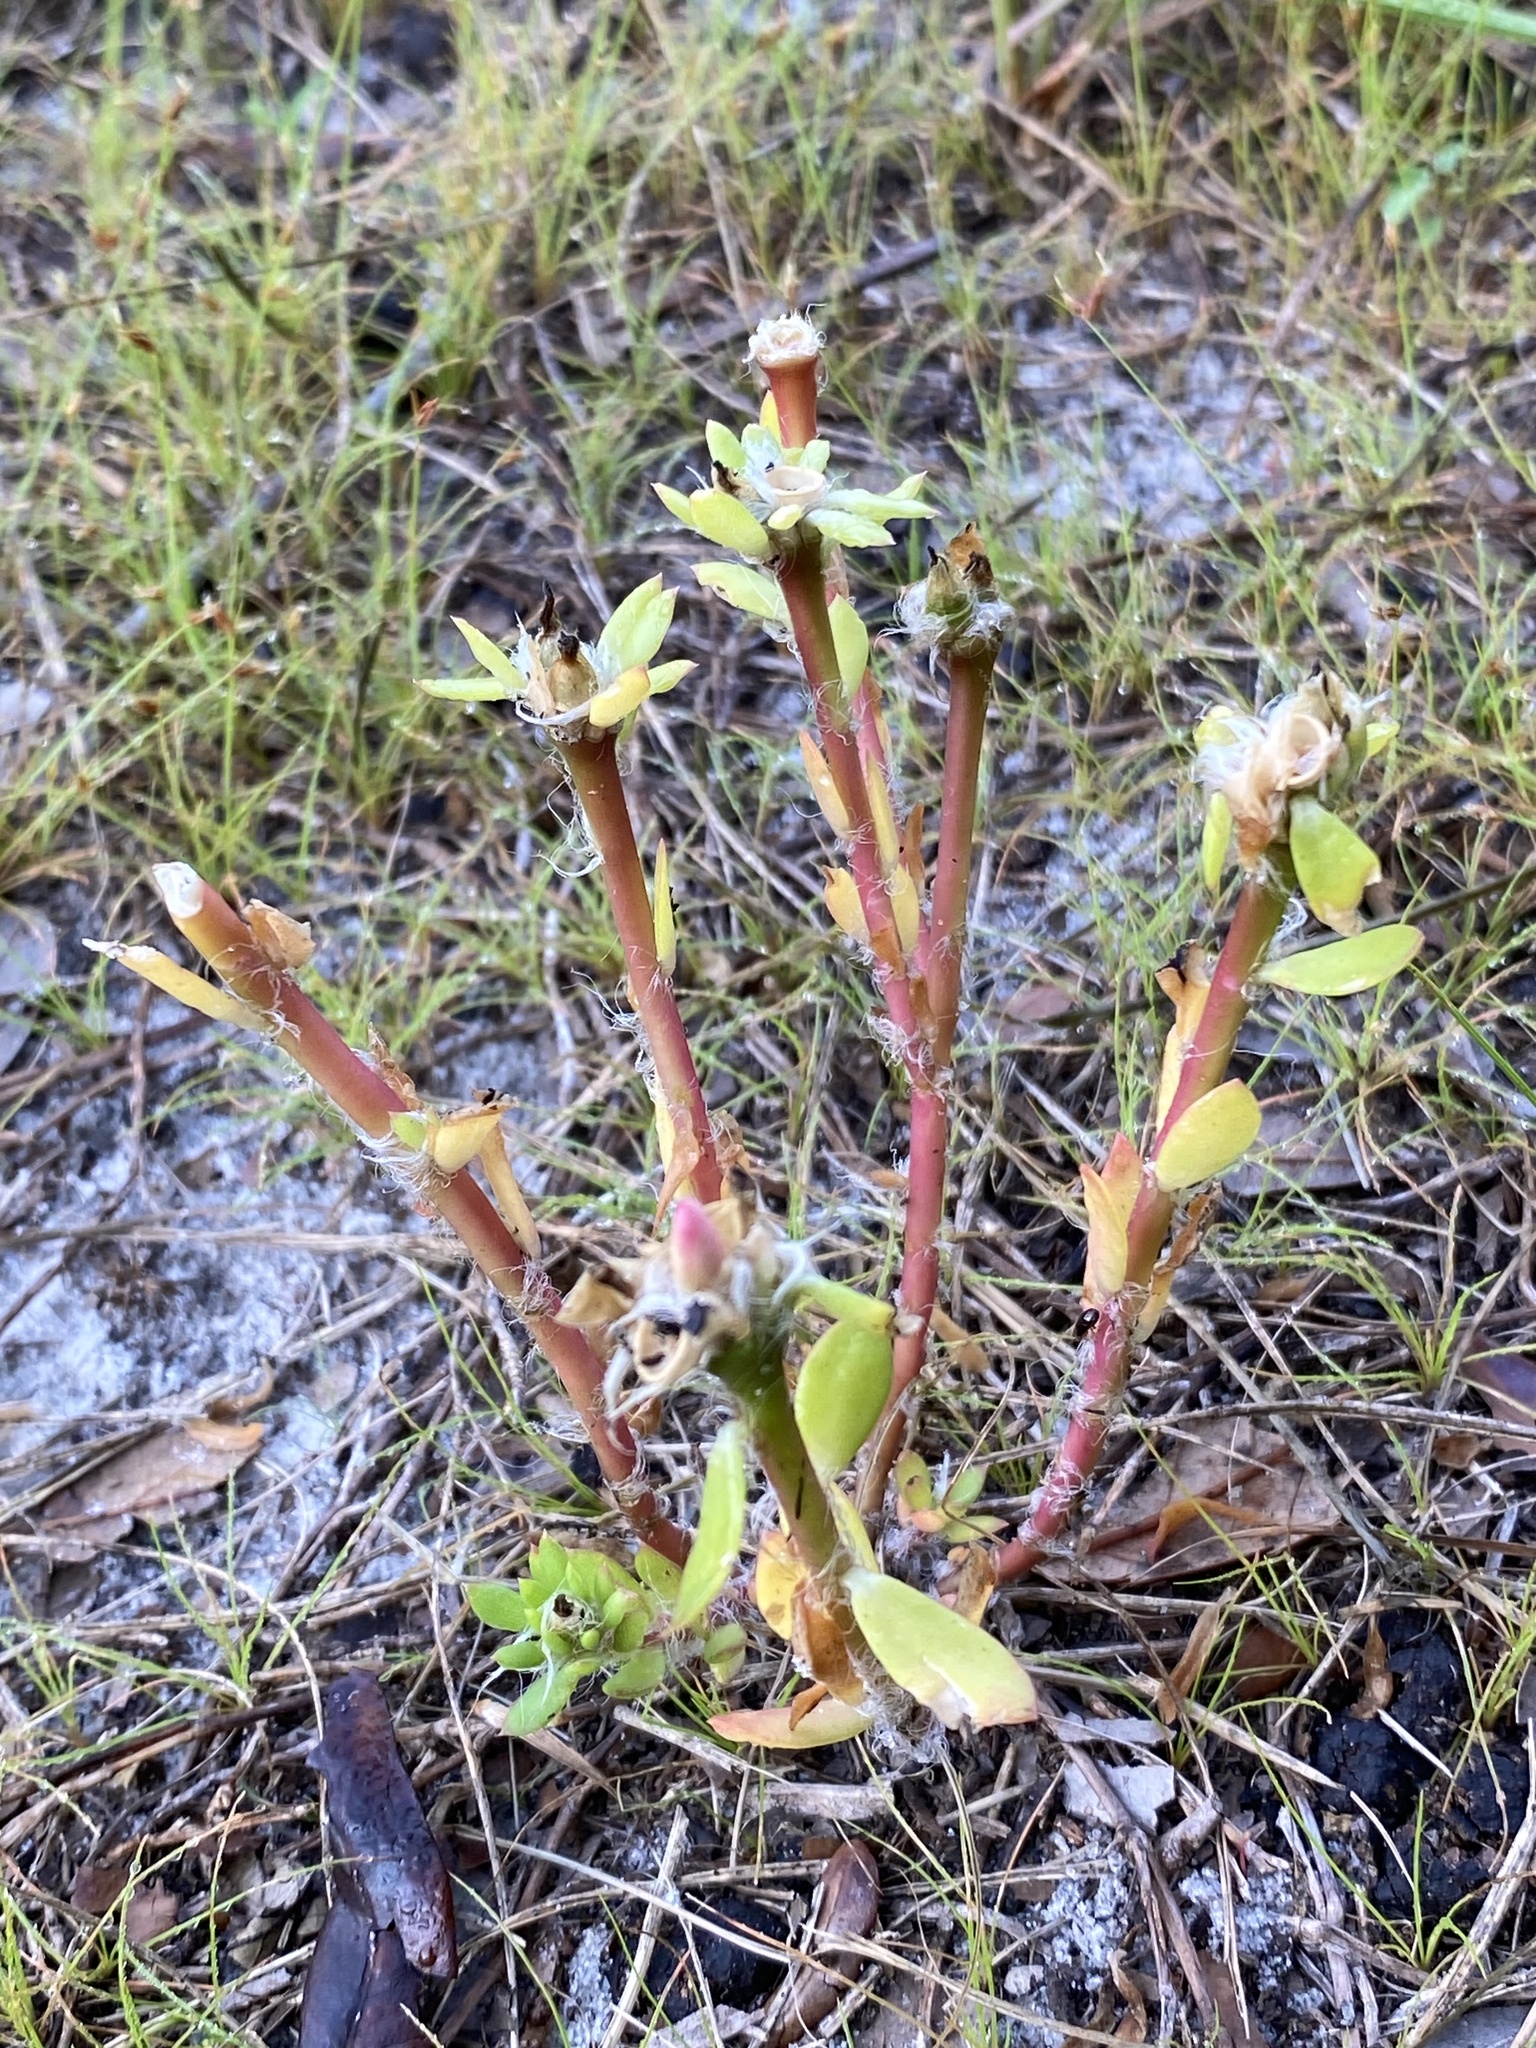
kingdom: Plantae
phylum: Tracheophyta
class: Magnoliopsida
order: Caryophyllales
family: Portulacaceae
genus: Portulaca
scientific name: Portulaca amilis
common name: Paraguayan purslane
